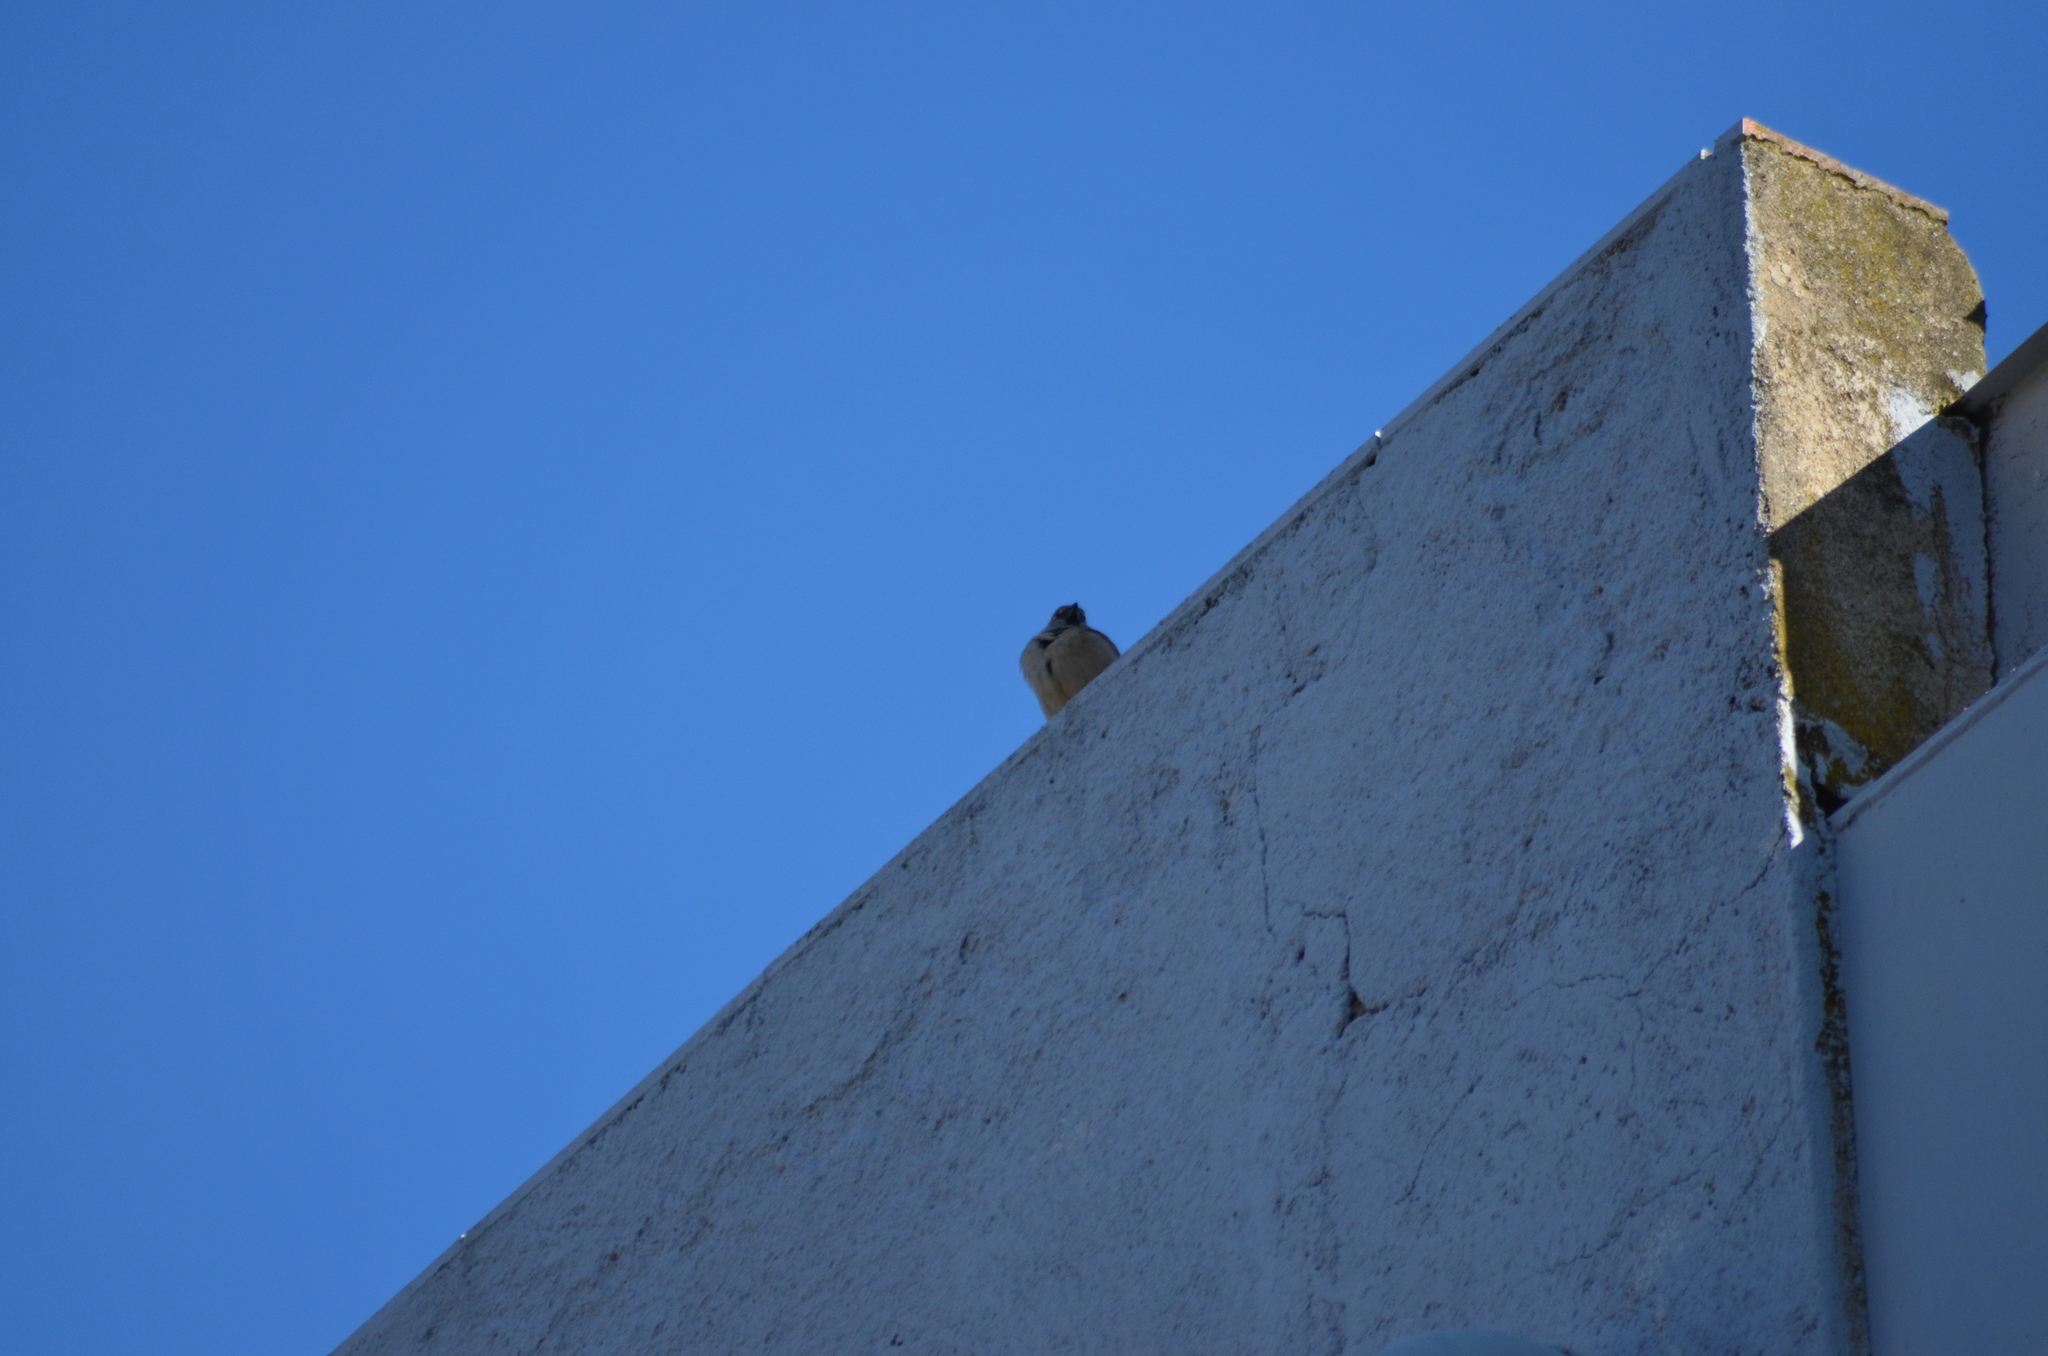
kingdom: Animalia
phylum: Chordata
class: Aves
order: Passeriformes
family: Passeridae
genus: Passer
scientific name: Passer domesticus
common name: House sparrow
